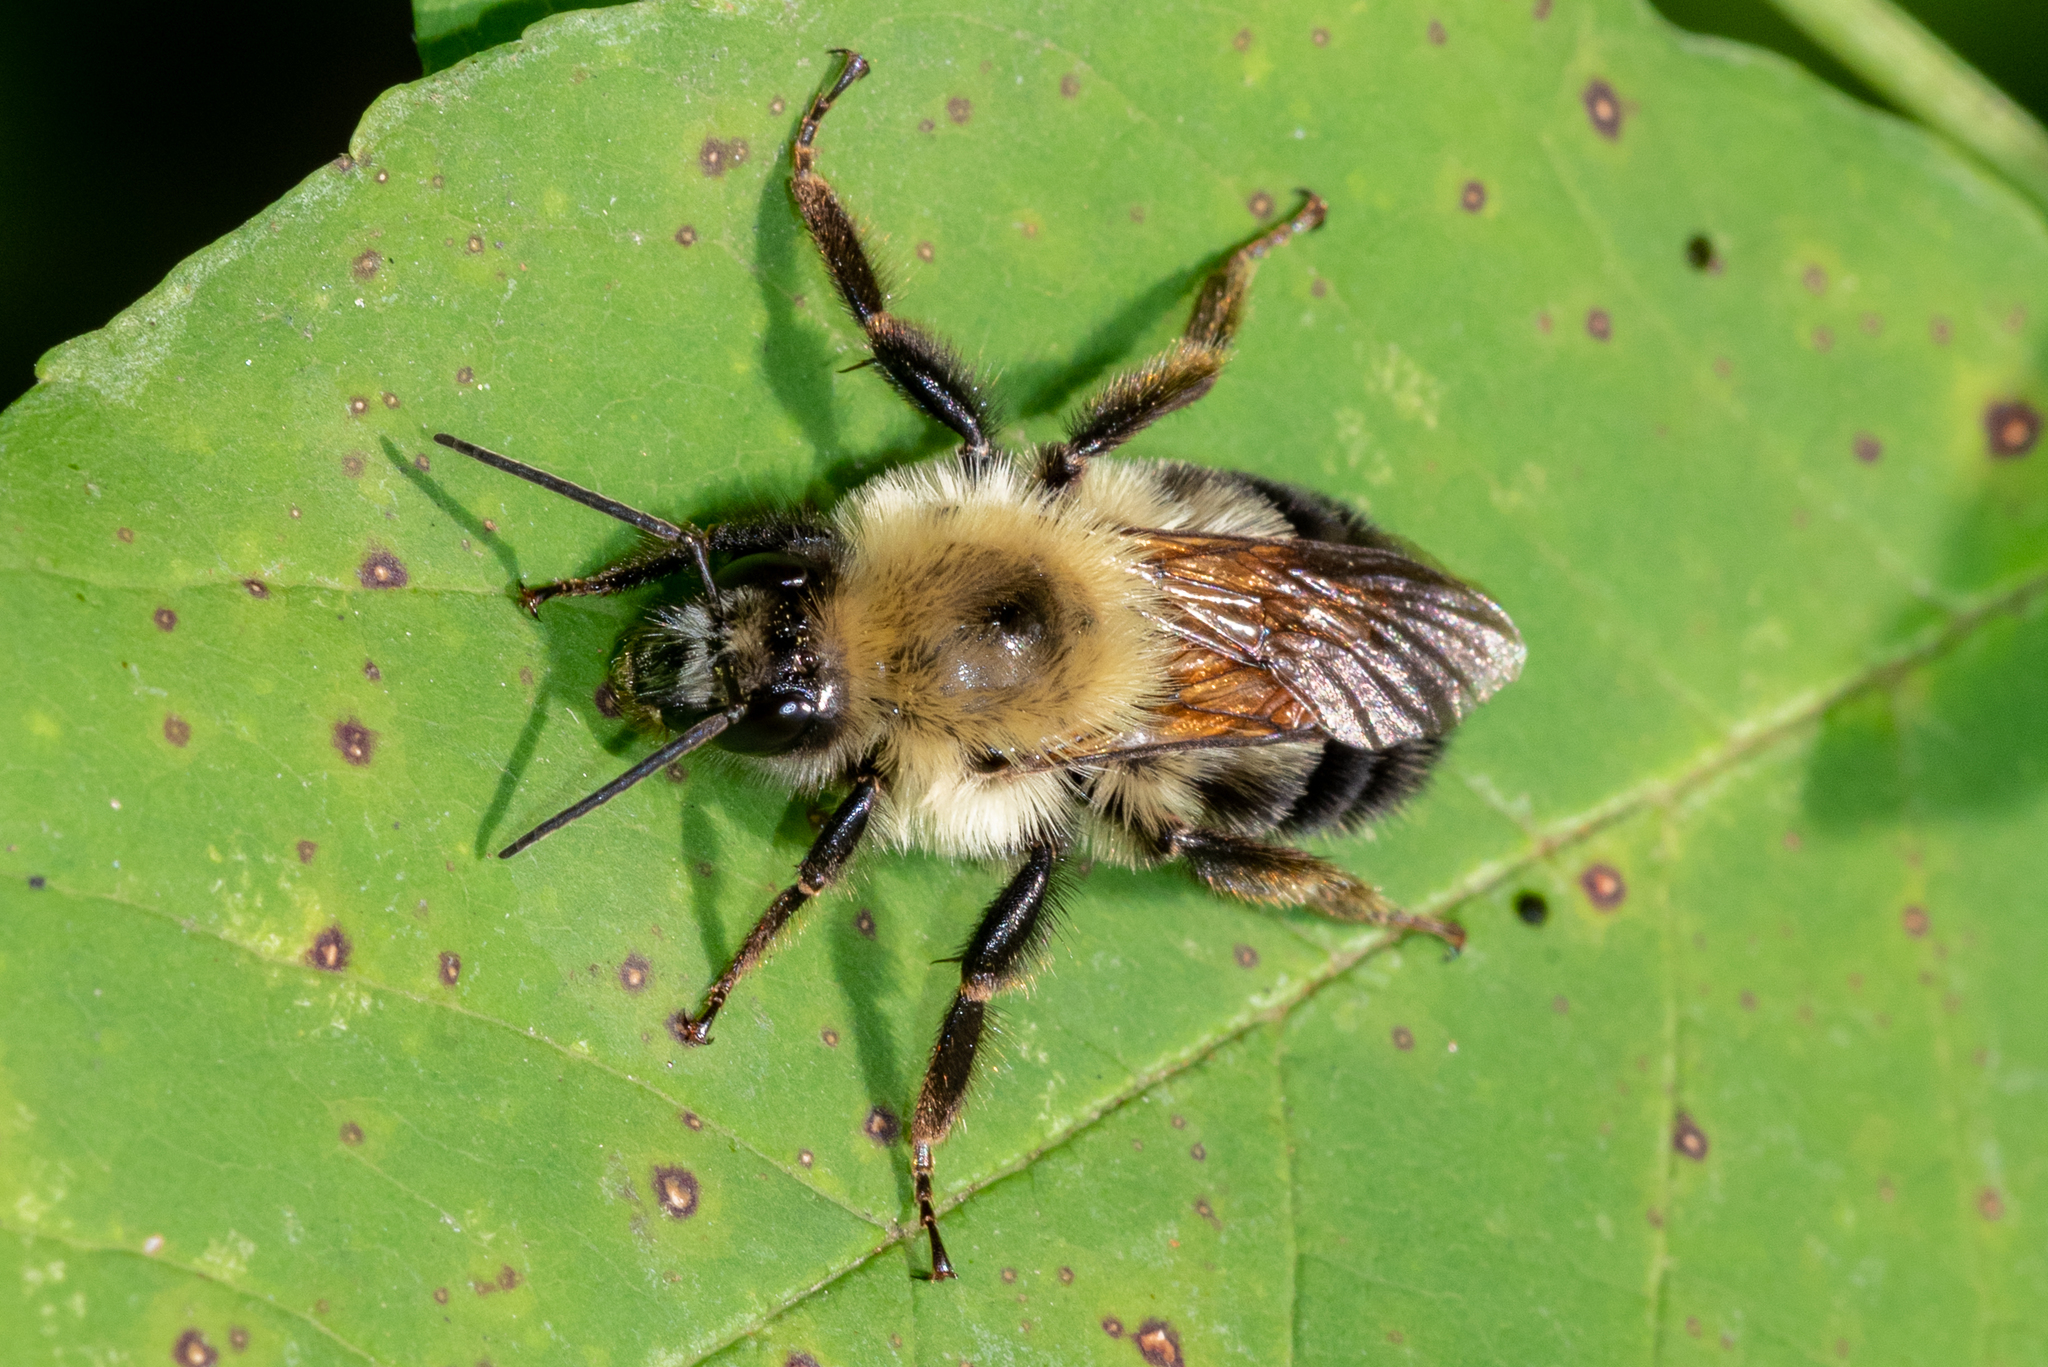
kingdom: Animalia
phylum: Arthropoda
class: Insecta
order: Hymenoptera
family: Apidae
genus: Bombus
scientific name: Bombus bimaculatus
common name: Two-spotted bumble bee
